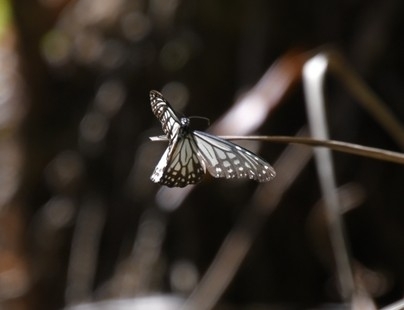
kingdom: Animalia
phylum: Arthropoda
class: Insecta
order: Lepidoptera
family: Nymphalidae
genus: Parantica
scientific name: Parantica aglea
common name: Glassy tiger
